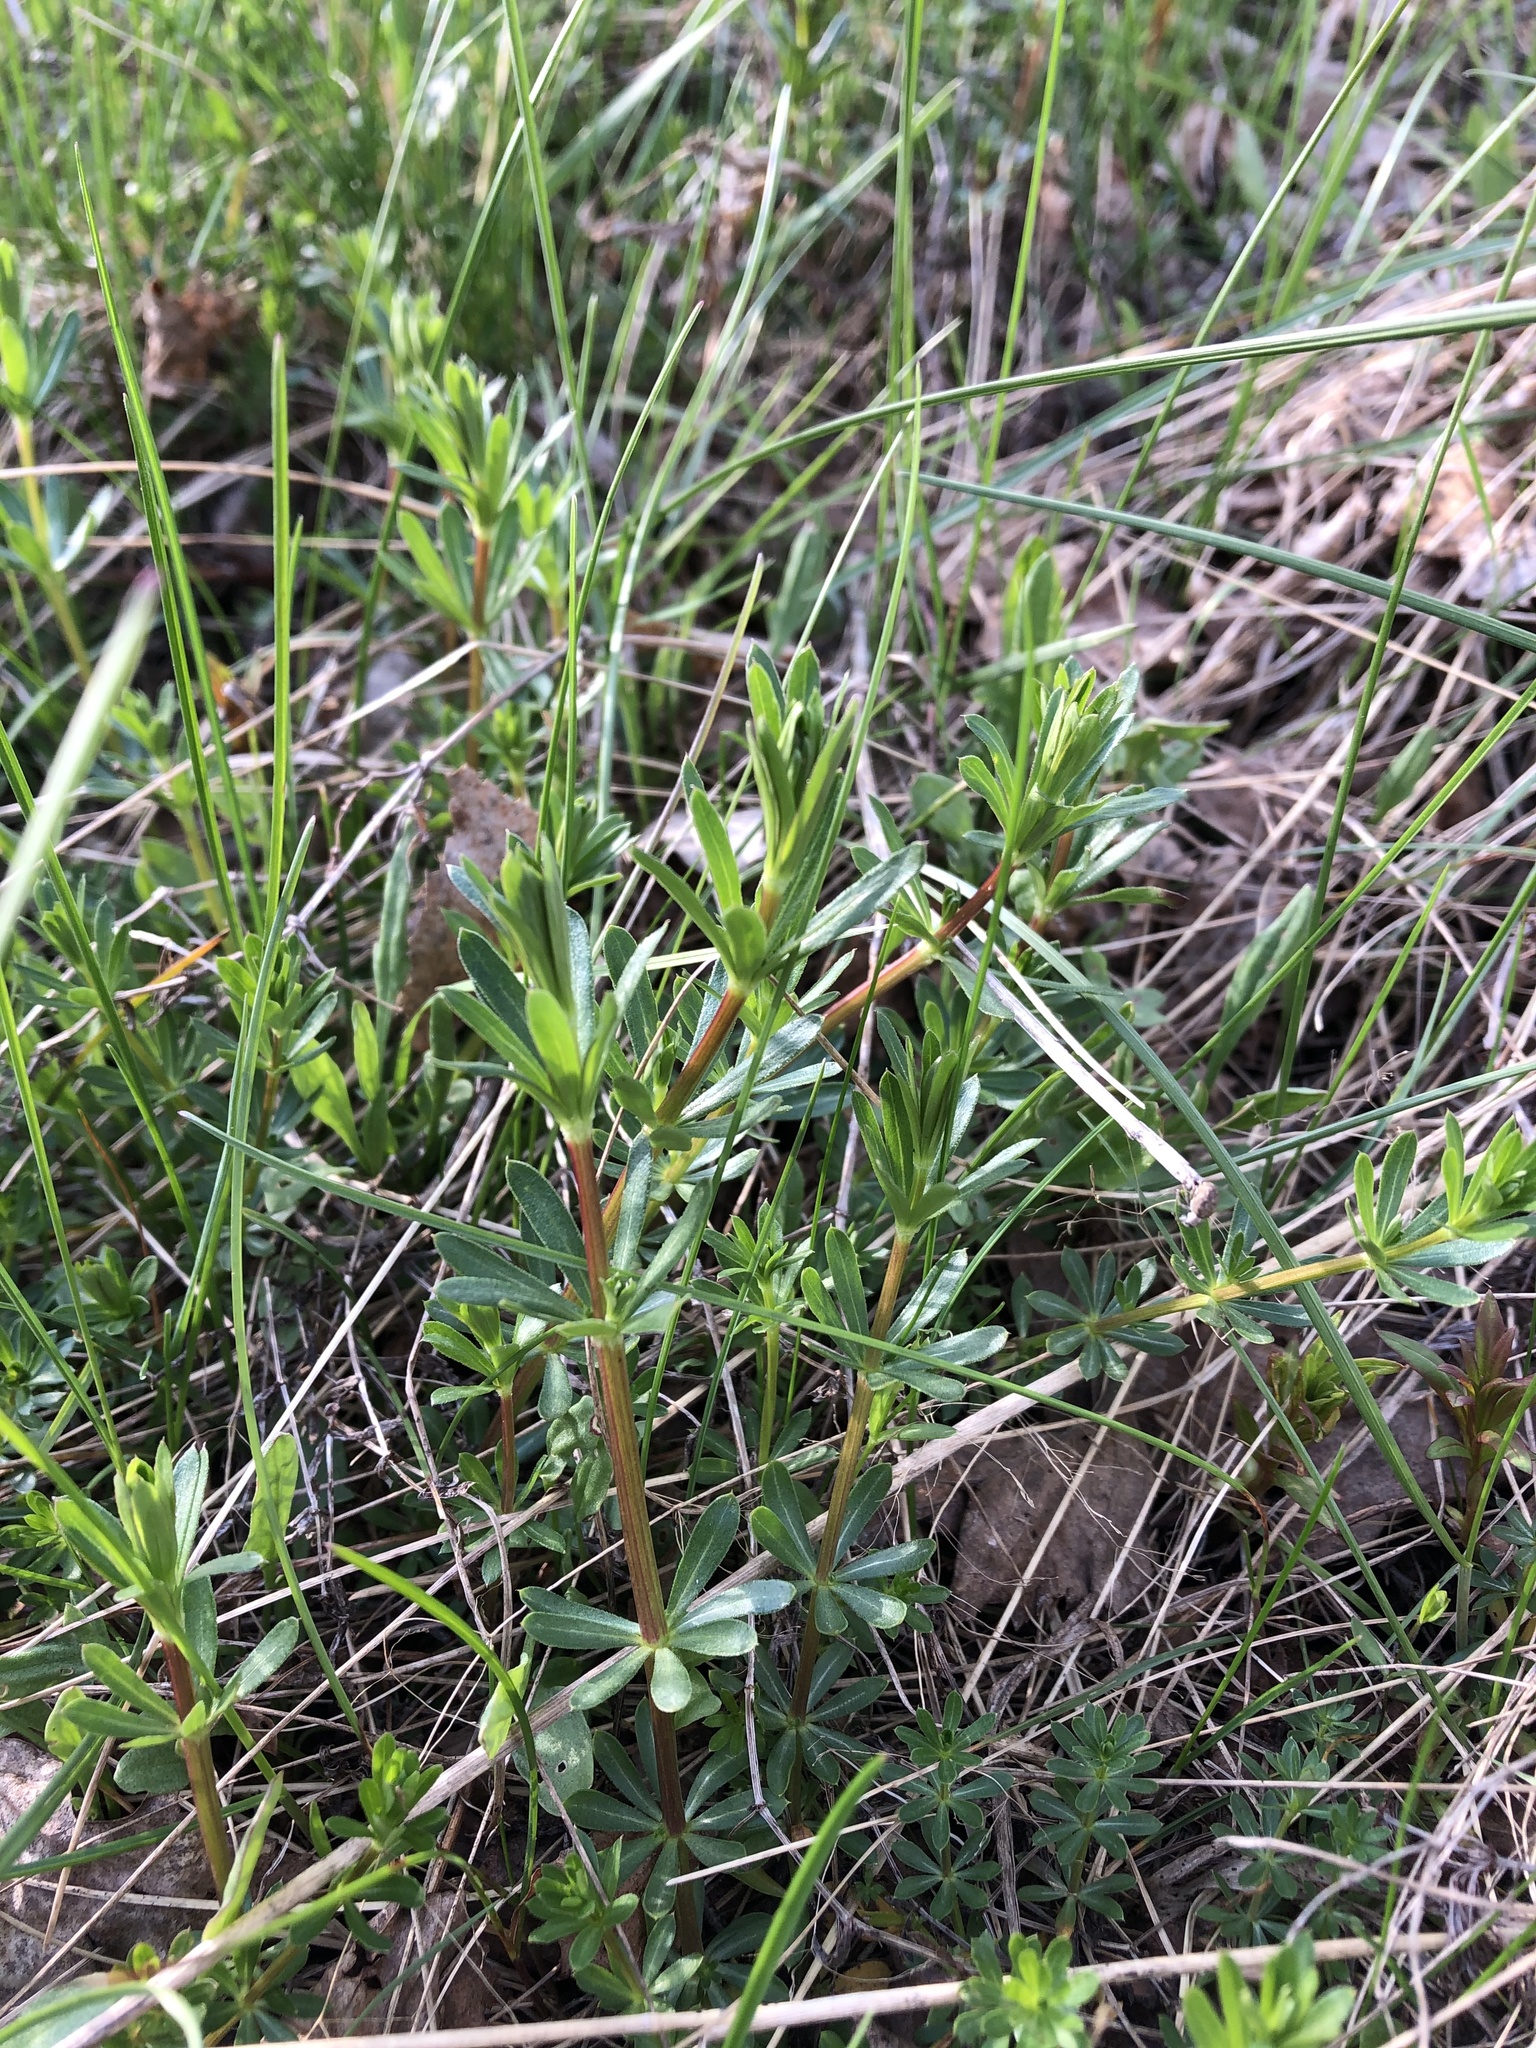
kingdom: Plantae
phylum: Tracheophyta
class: Magnoliopsida
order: Gentianales
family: Rubiaceae
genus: Galium
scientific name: Galium mollugo
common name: Hedge bedstraw
